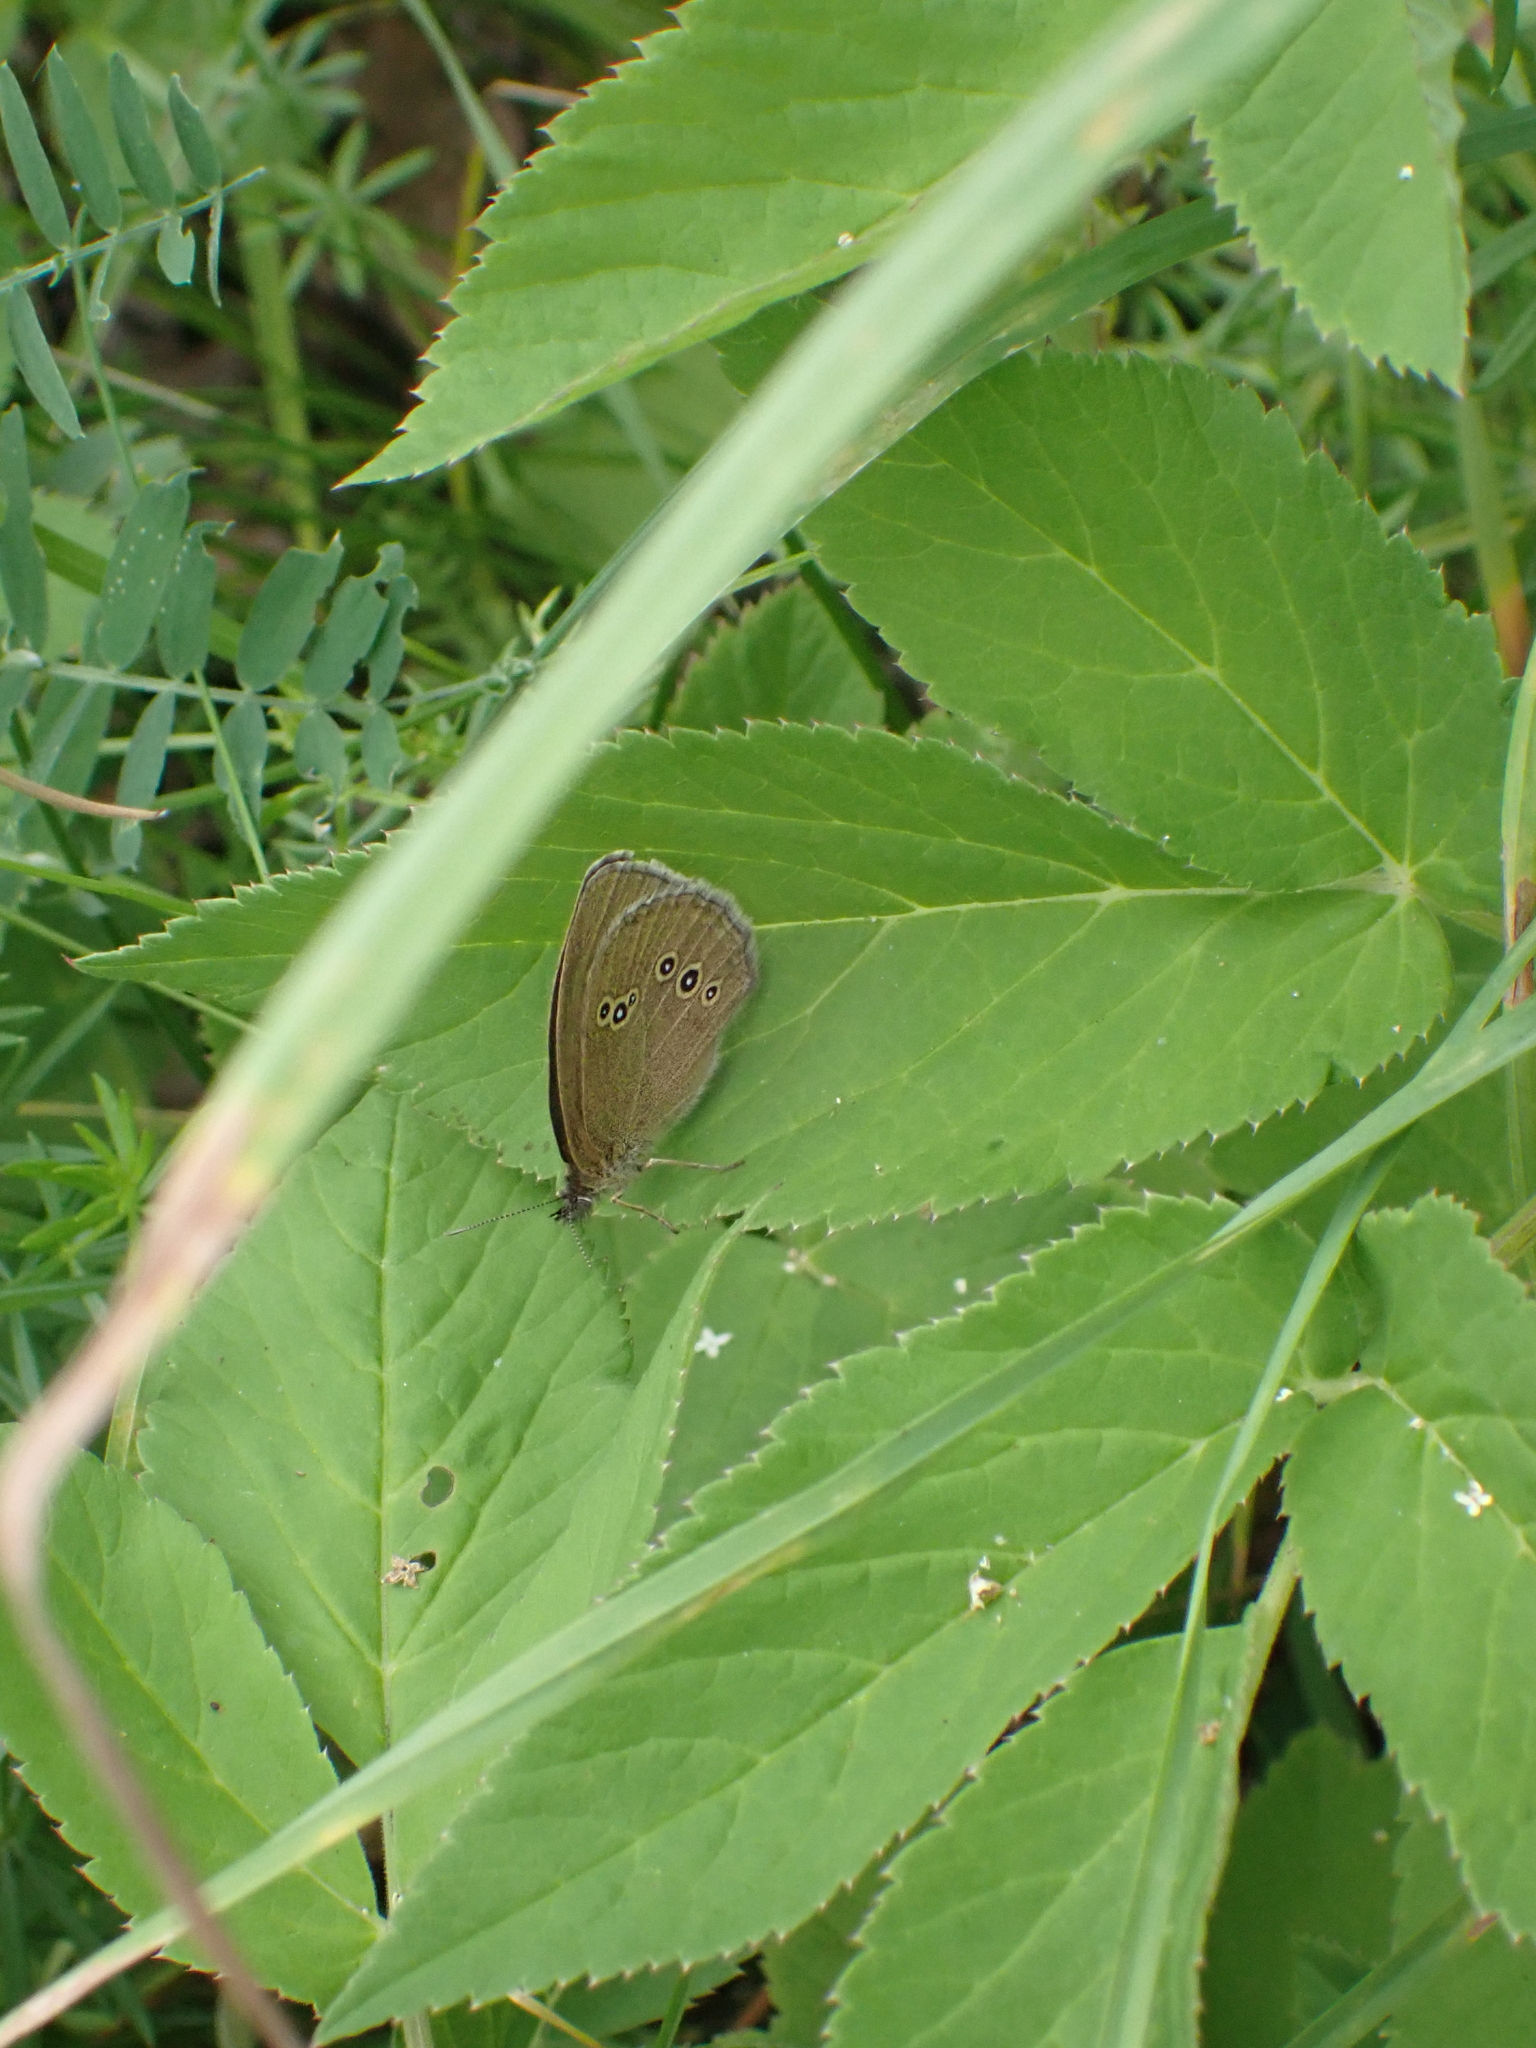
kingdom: Animalia
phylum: Arthropoda
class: Insecta
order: Lepidoptera
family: Nymphalidae
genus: Aphantopus
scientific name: Aphantopus hyperantus
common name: Ringlet
